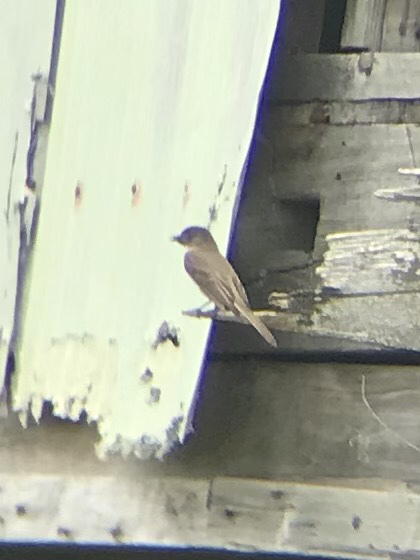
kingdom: Animalia
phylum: Chordata
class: Aves
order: Passeriformes
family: Tyrannidae
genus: Sayornis
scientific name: Sayornis phoebe
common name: Eastern phoebe
